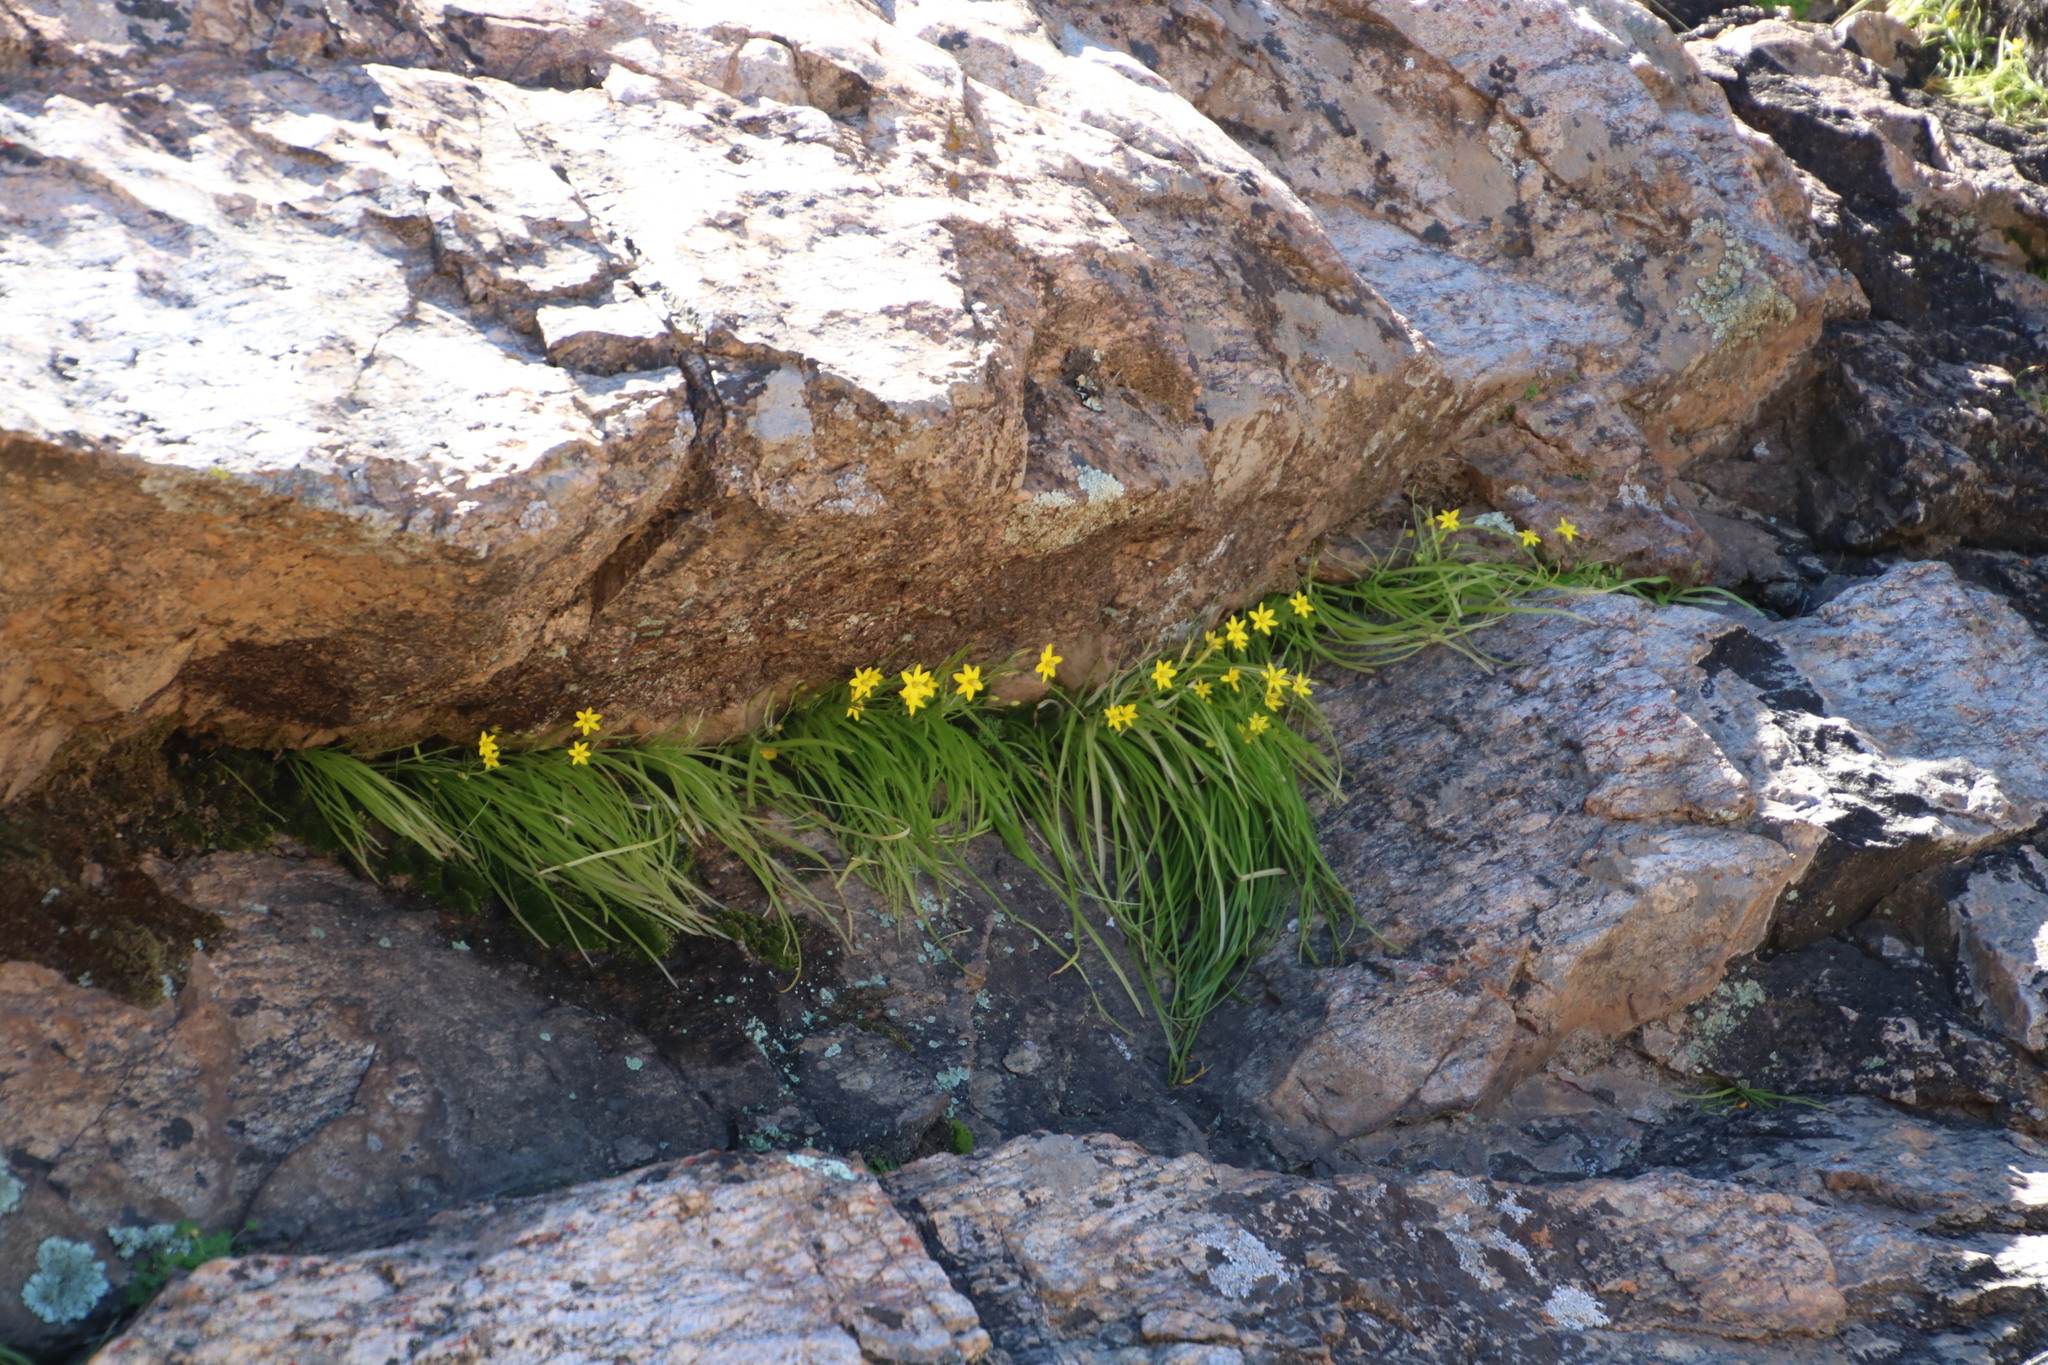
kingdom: Plantae
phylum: Tracheophyta
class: Liliopsida
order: Asparagales
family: Hypoxidaceae
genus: Pauridia
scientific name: Pauridia scullyi
